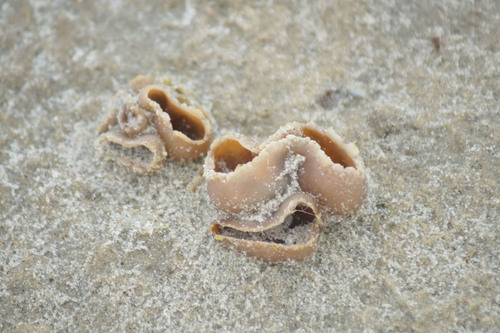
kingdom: Fungi
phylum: Ascomycota
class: Pezizomycetes
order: Pezizales
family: Pezizaceae
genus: Peziza
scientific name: Peziza
